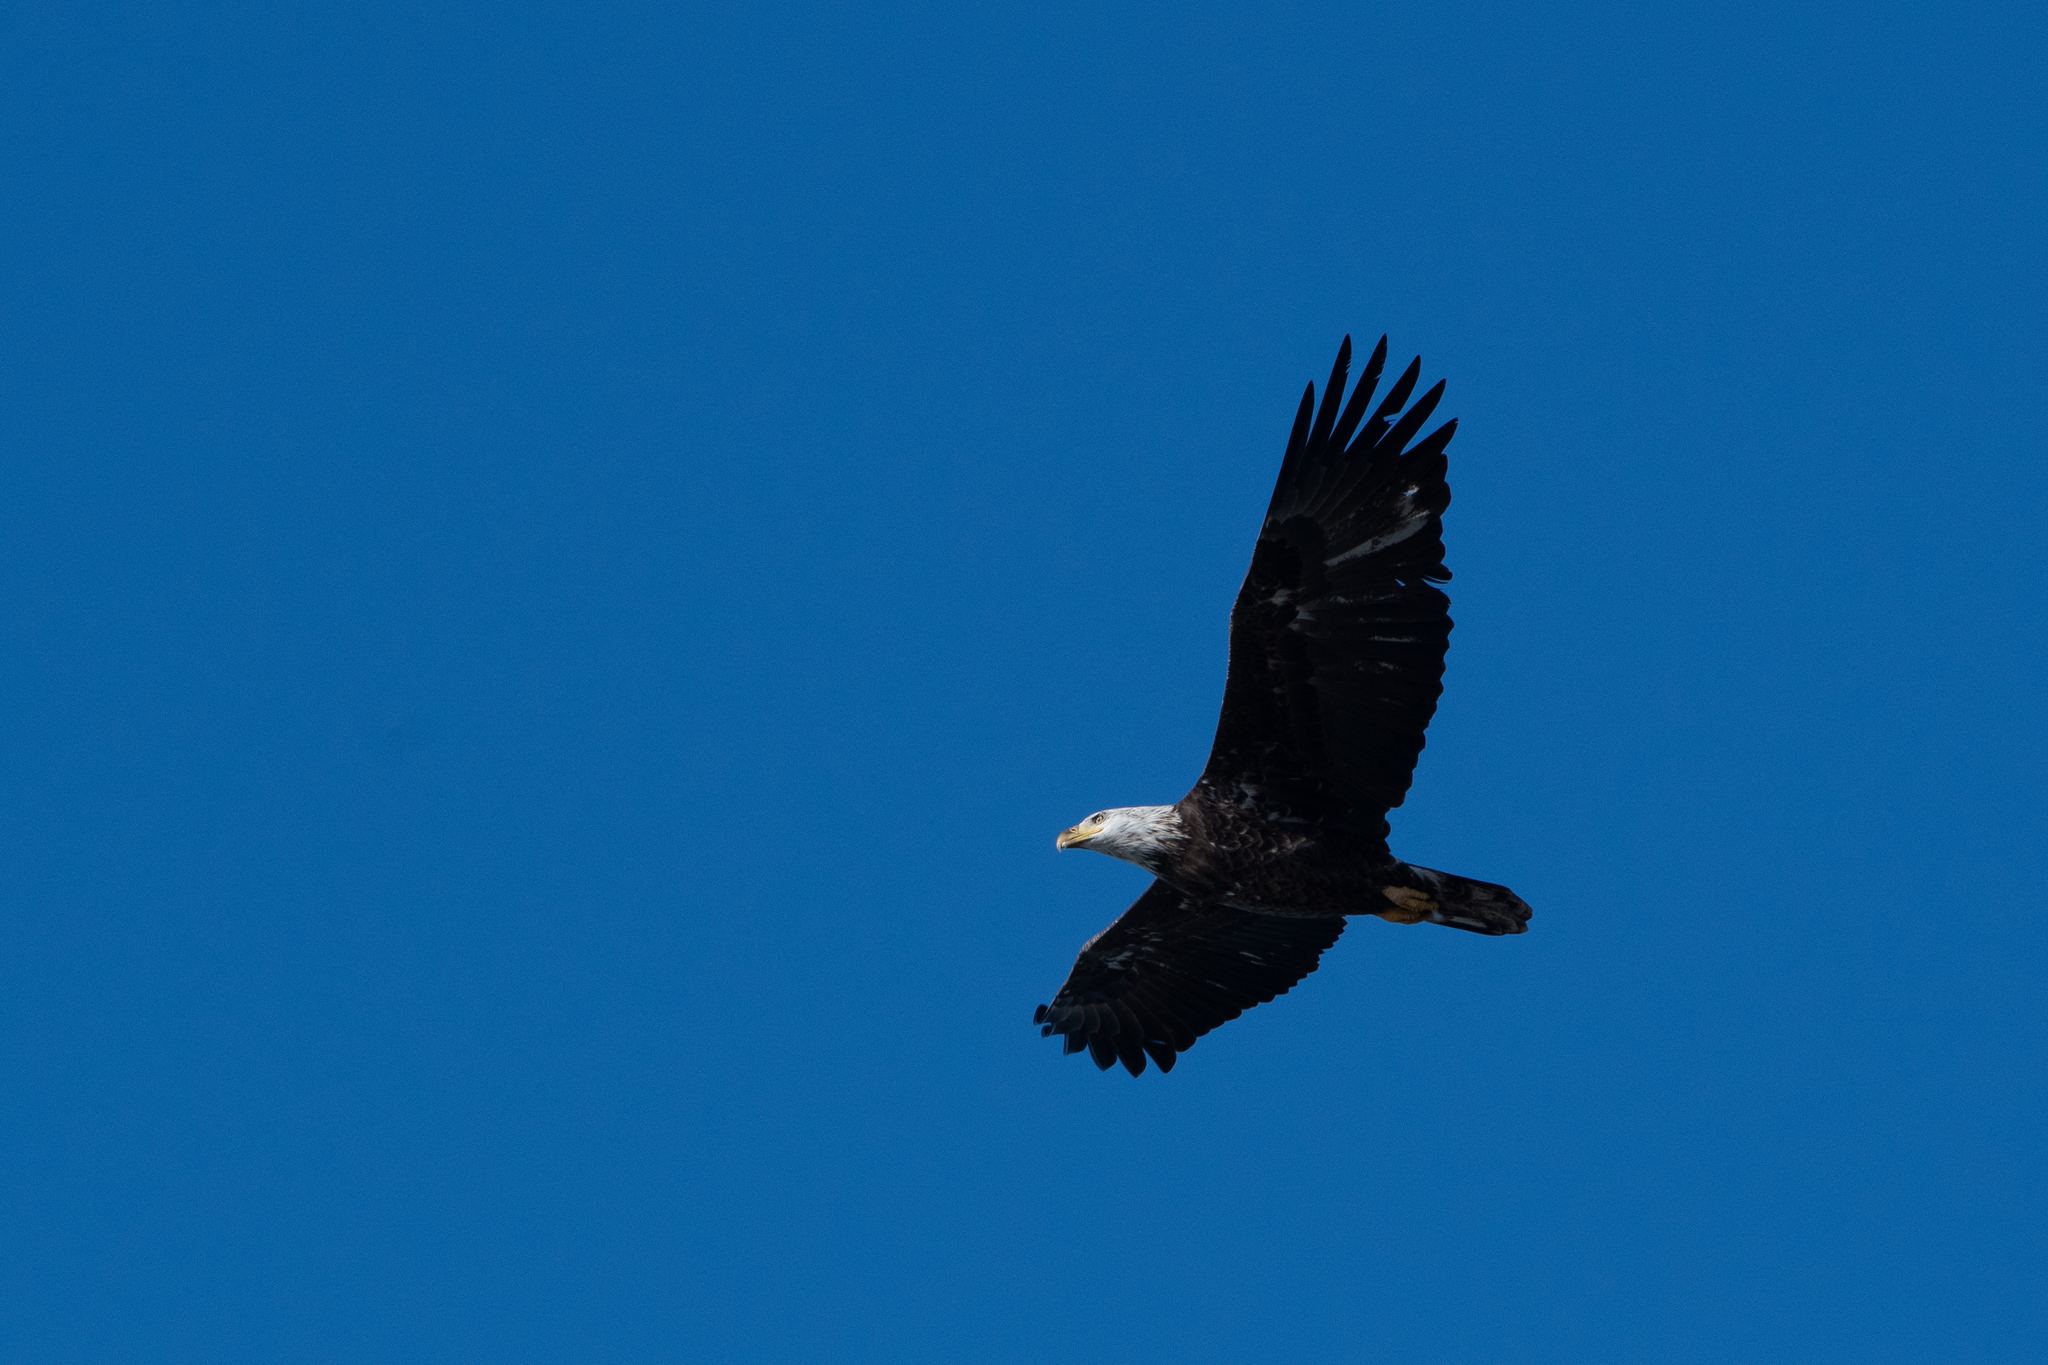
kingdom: Animalia
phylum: Chordata
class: Aves
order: Accipitriformes
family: Accipitridae
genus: Haliaeetus
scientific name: Haliaeetus leucocephalus
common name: Bald eagle
